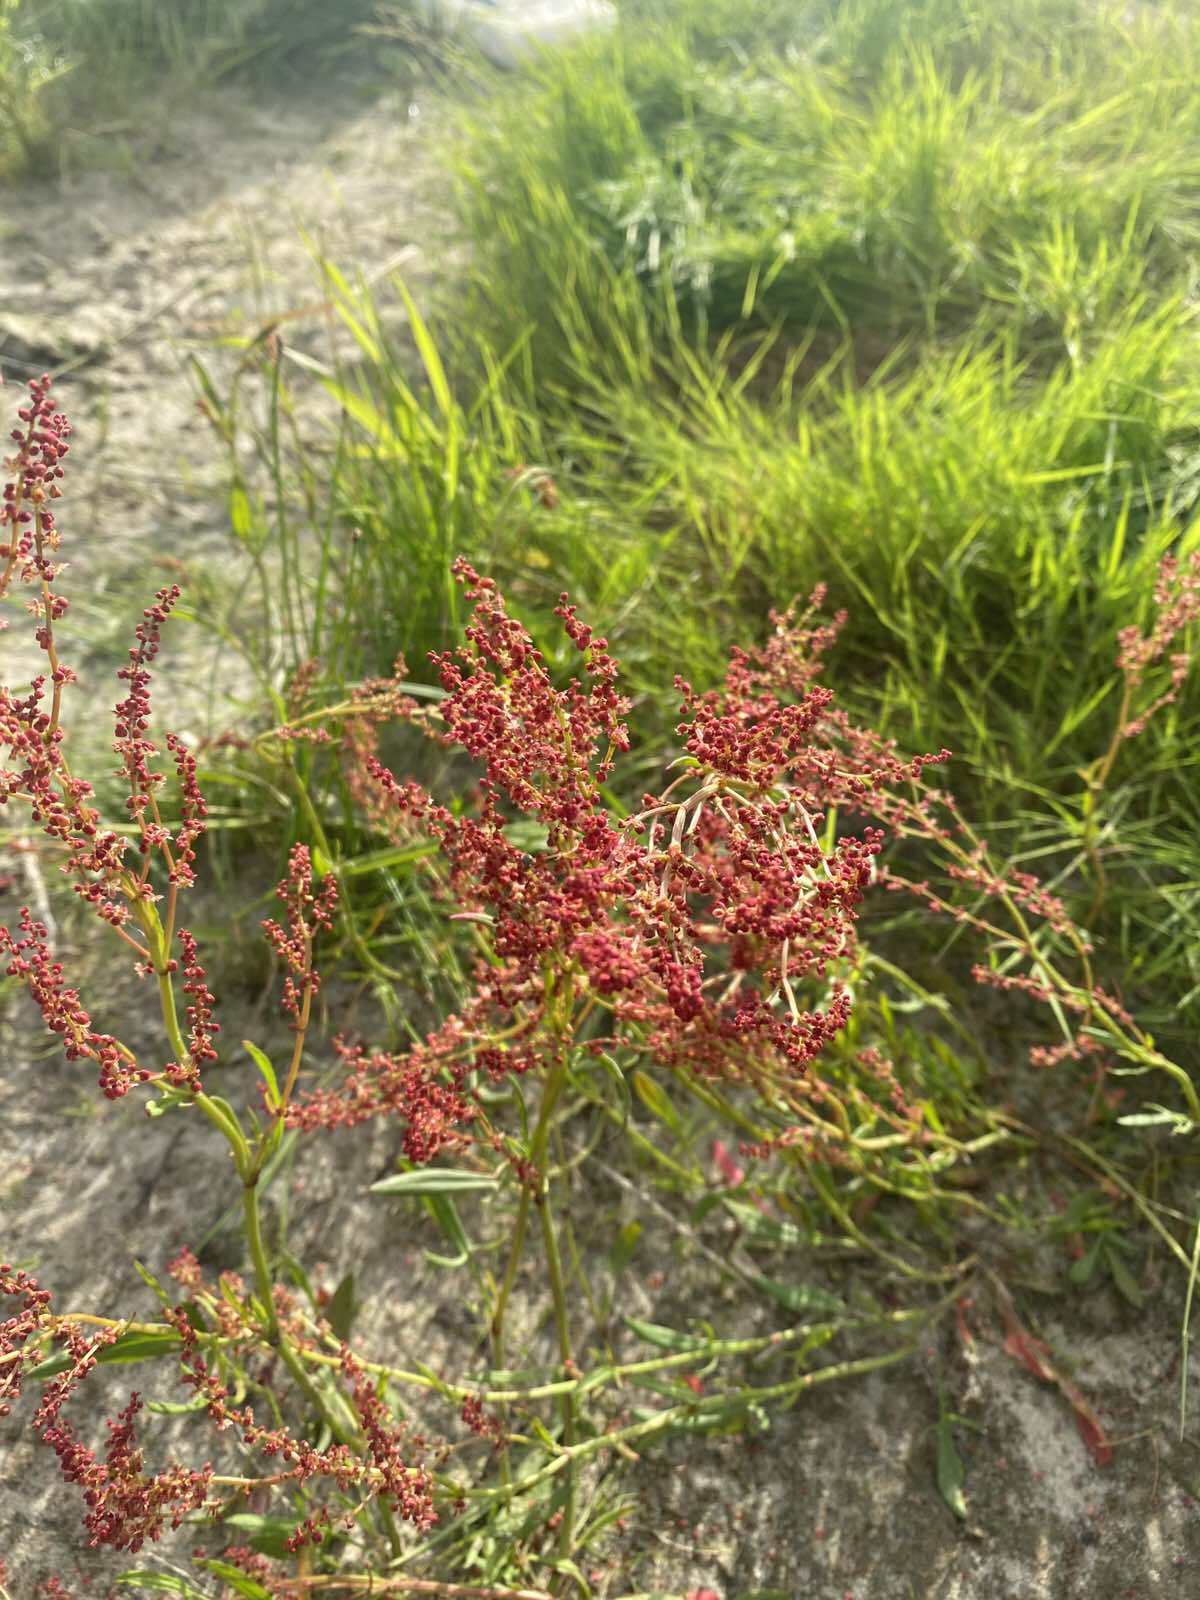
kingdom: Plantae
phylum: Tracheophyta
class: Magnoliopsida
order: Caryophyllales
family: Polygonaceae
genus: Rumex
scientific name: Rumex acetosella
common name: Common sheep sorrel
